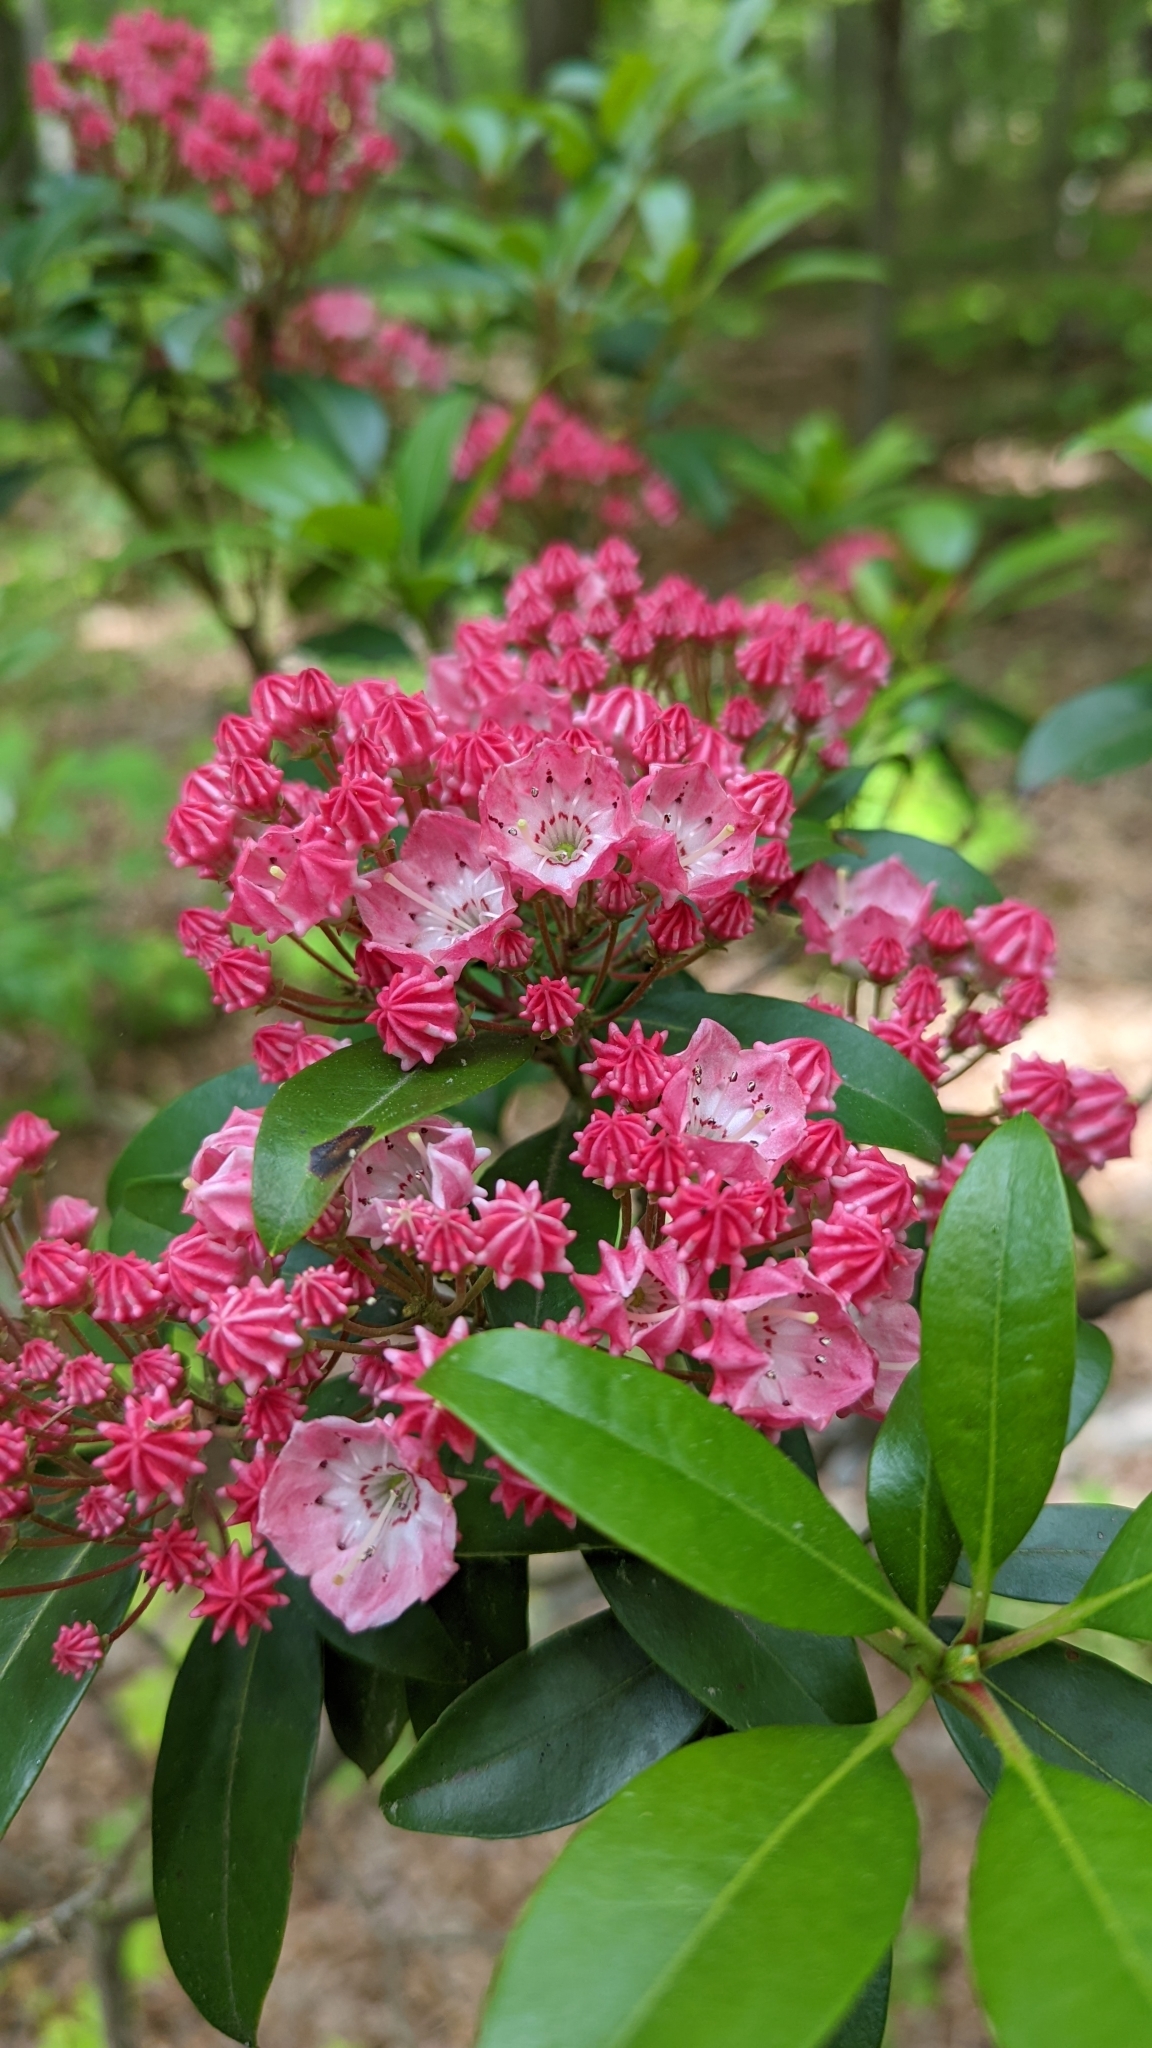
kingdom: Plantae
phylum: Tracheophyta
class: Magnoliopsida
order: Ericales
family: Ericaceae
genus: Kalmia
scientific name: Kalmia latifolia
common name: Mountain-laurel
